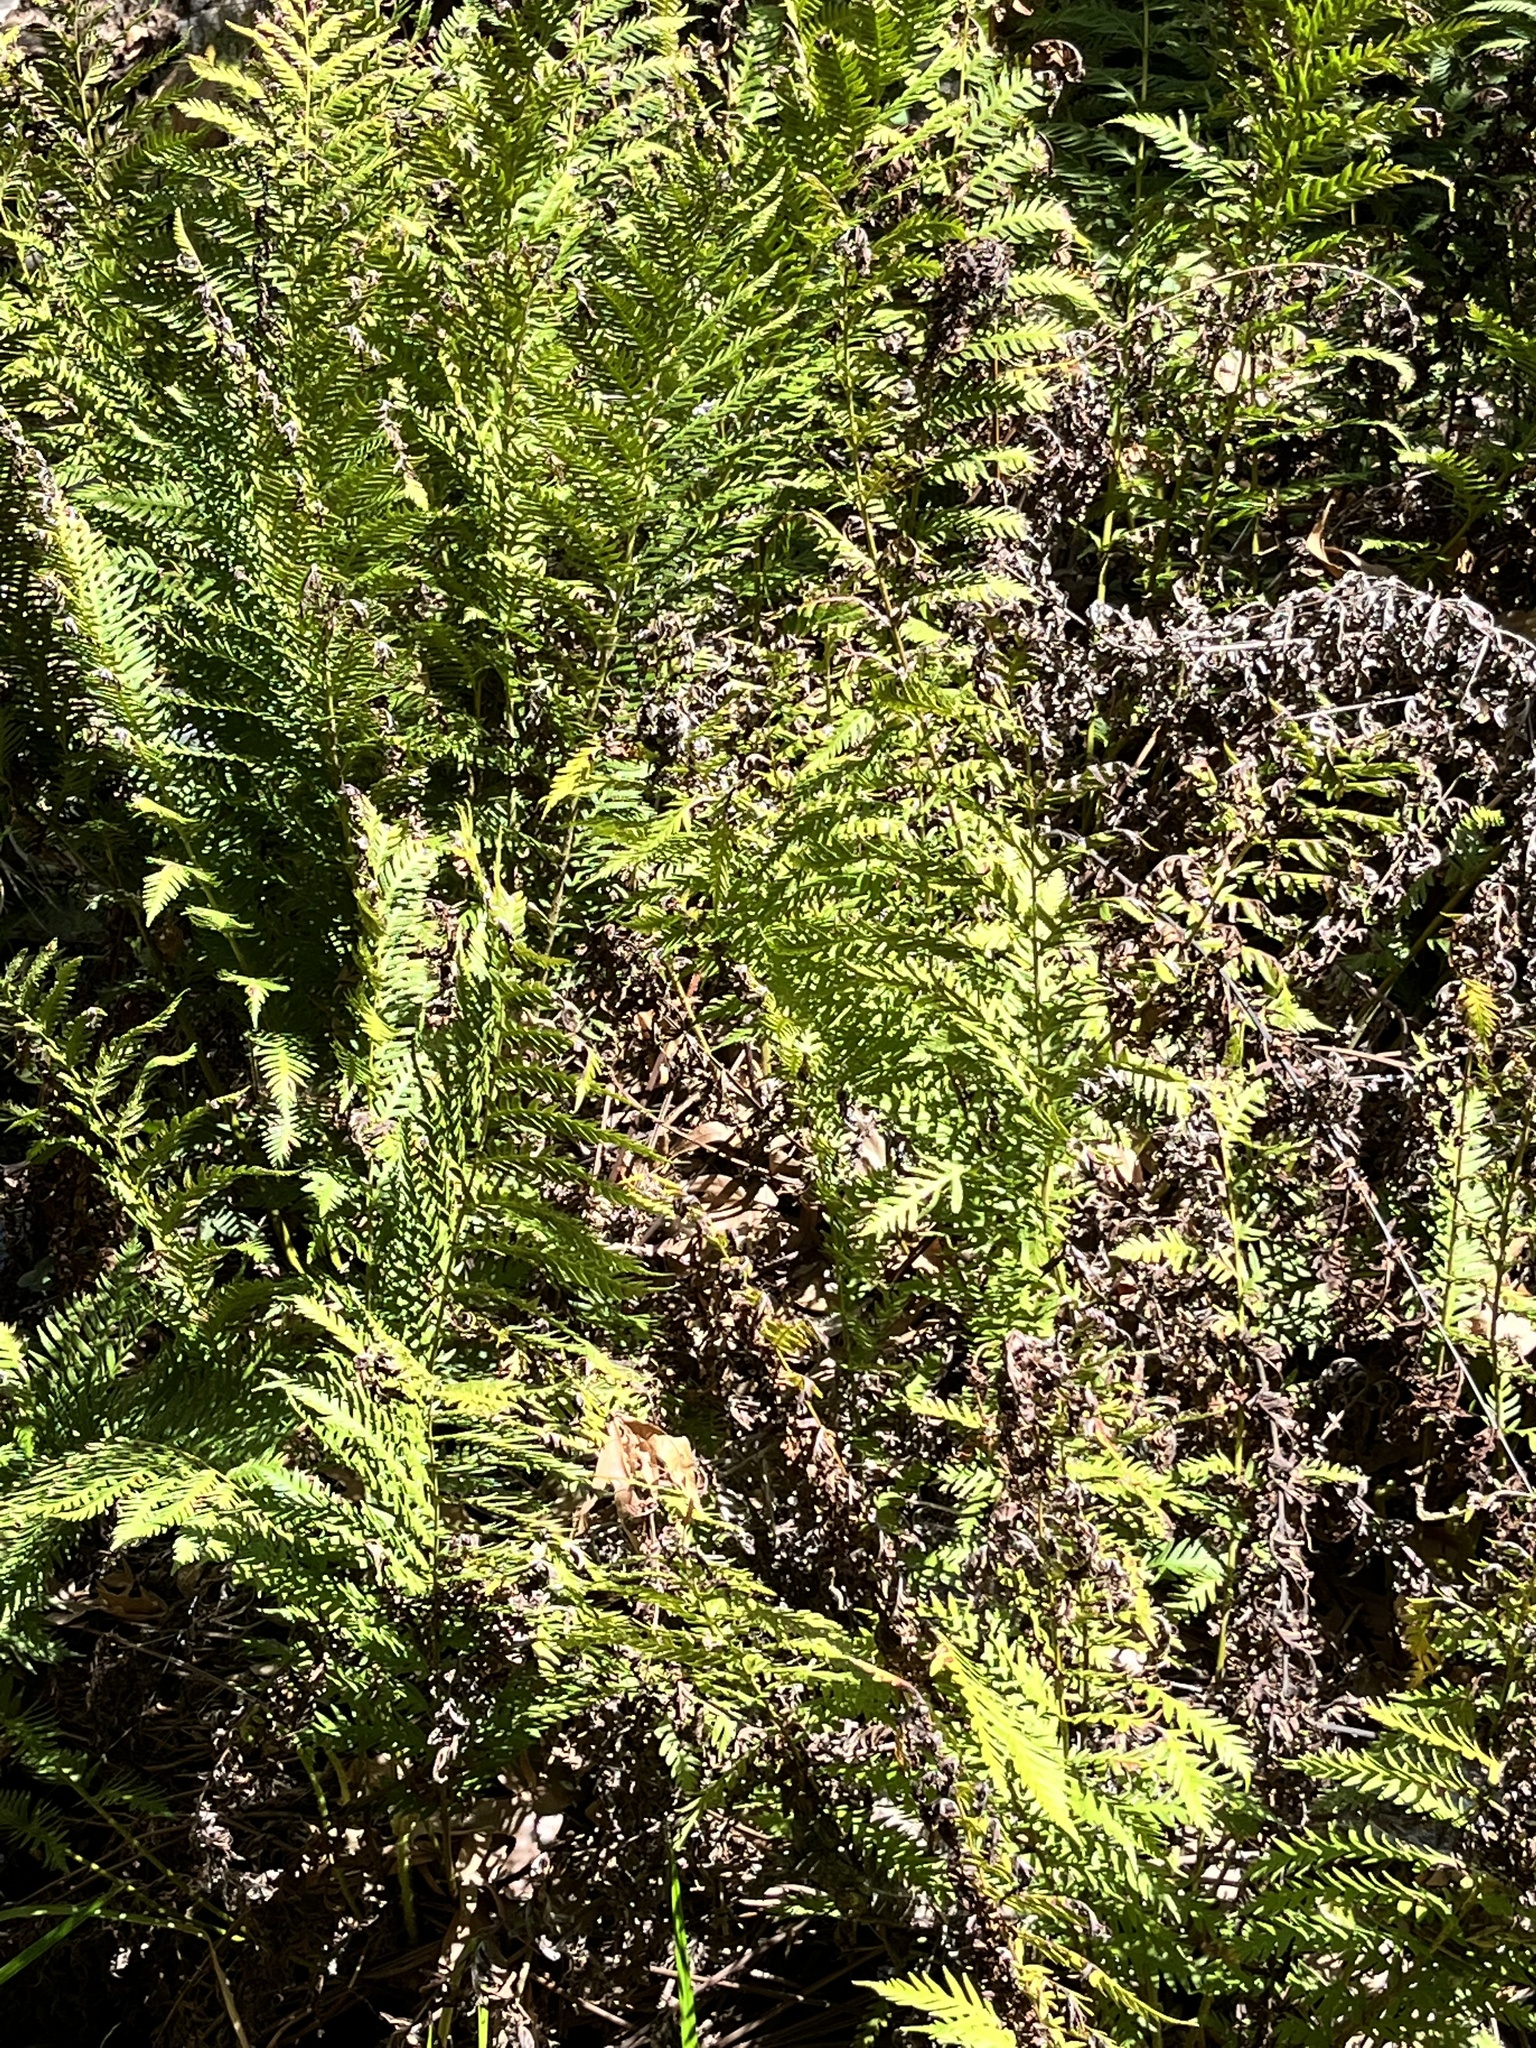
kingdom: Plantae
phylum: Tracheophyta
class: Polypodiopsida
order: Polypodiales
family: Blechnaceae
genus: Woodwardia
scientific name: Woodwardia fimbriata
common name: Giant chain fern
